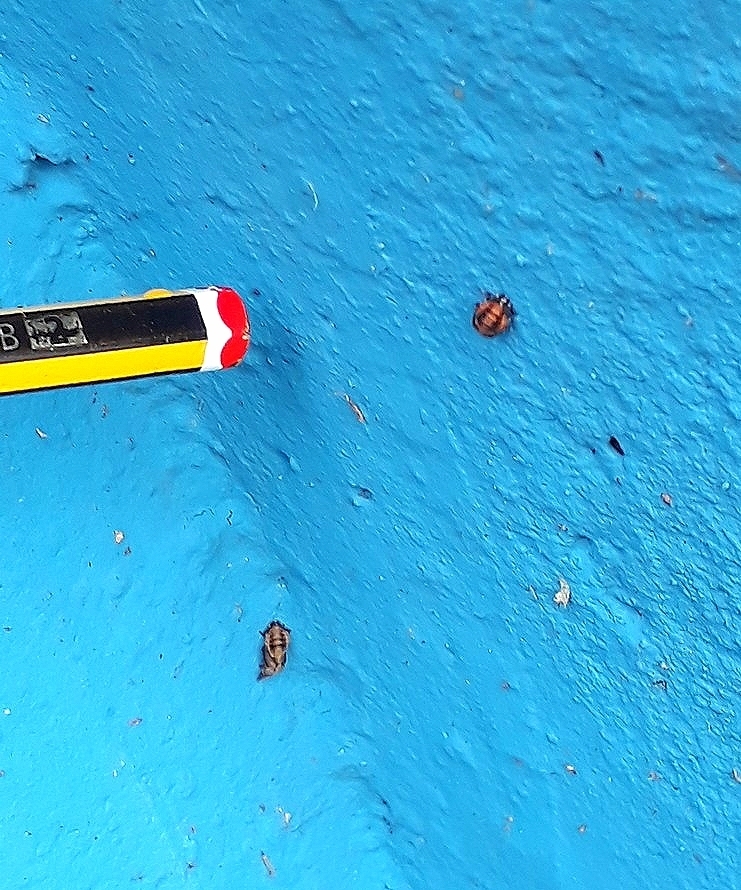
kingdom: Animalia
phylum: Arthropoda
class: Insecta
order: Coleoptera
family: Coccinellidae
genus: Eriopis
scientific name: Eriopis connexa
